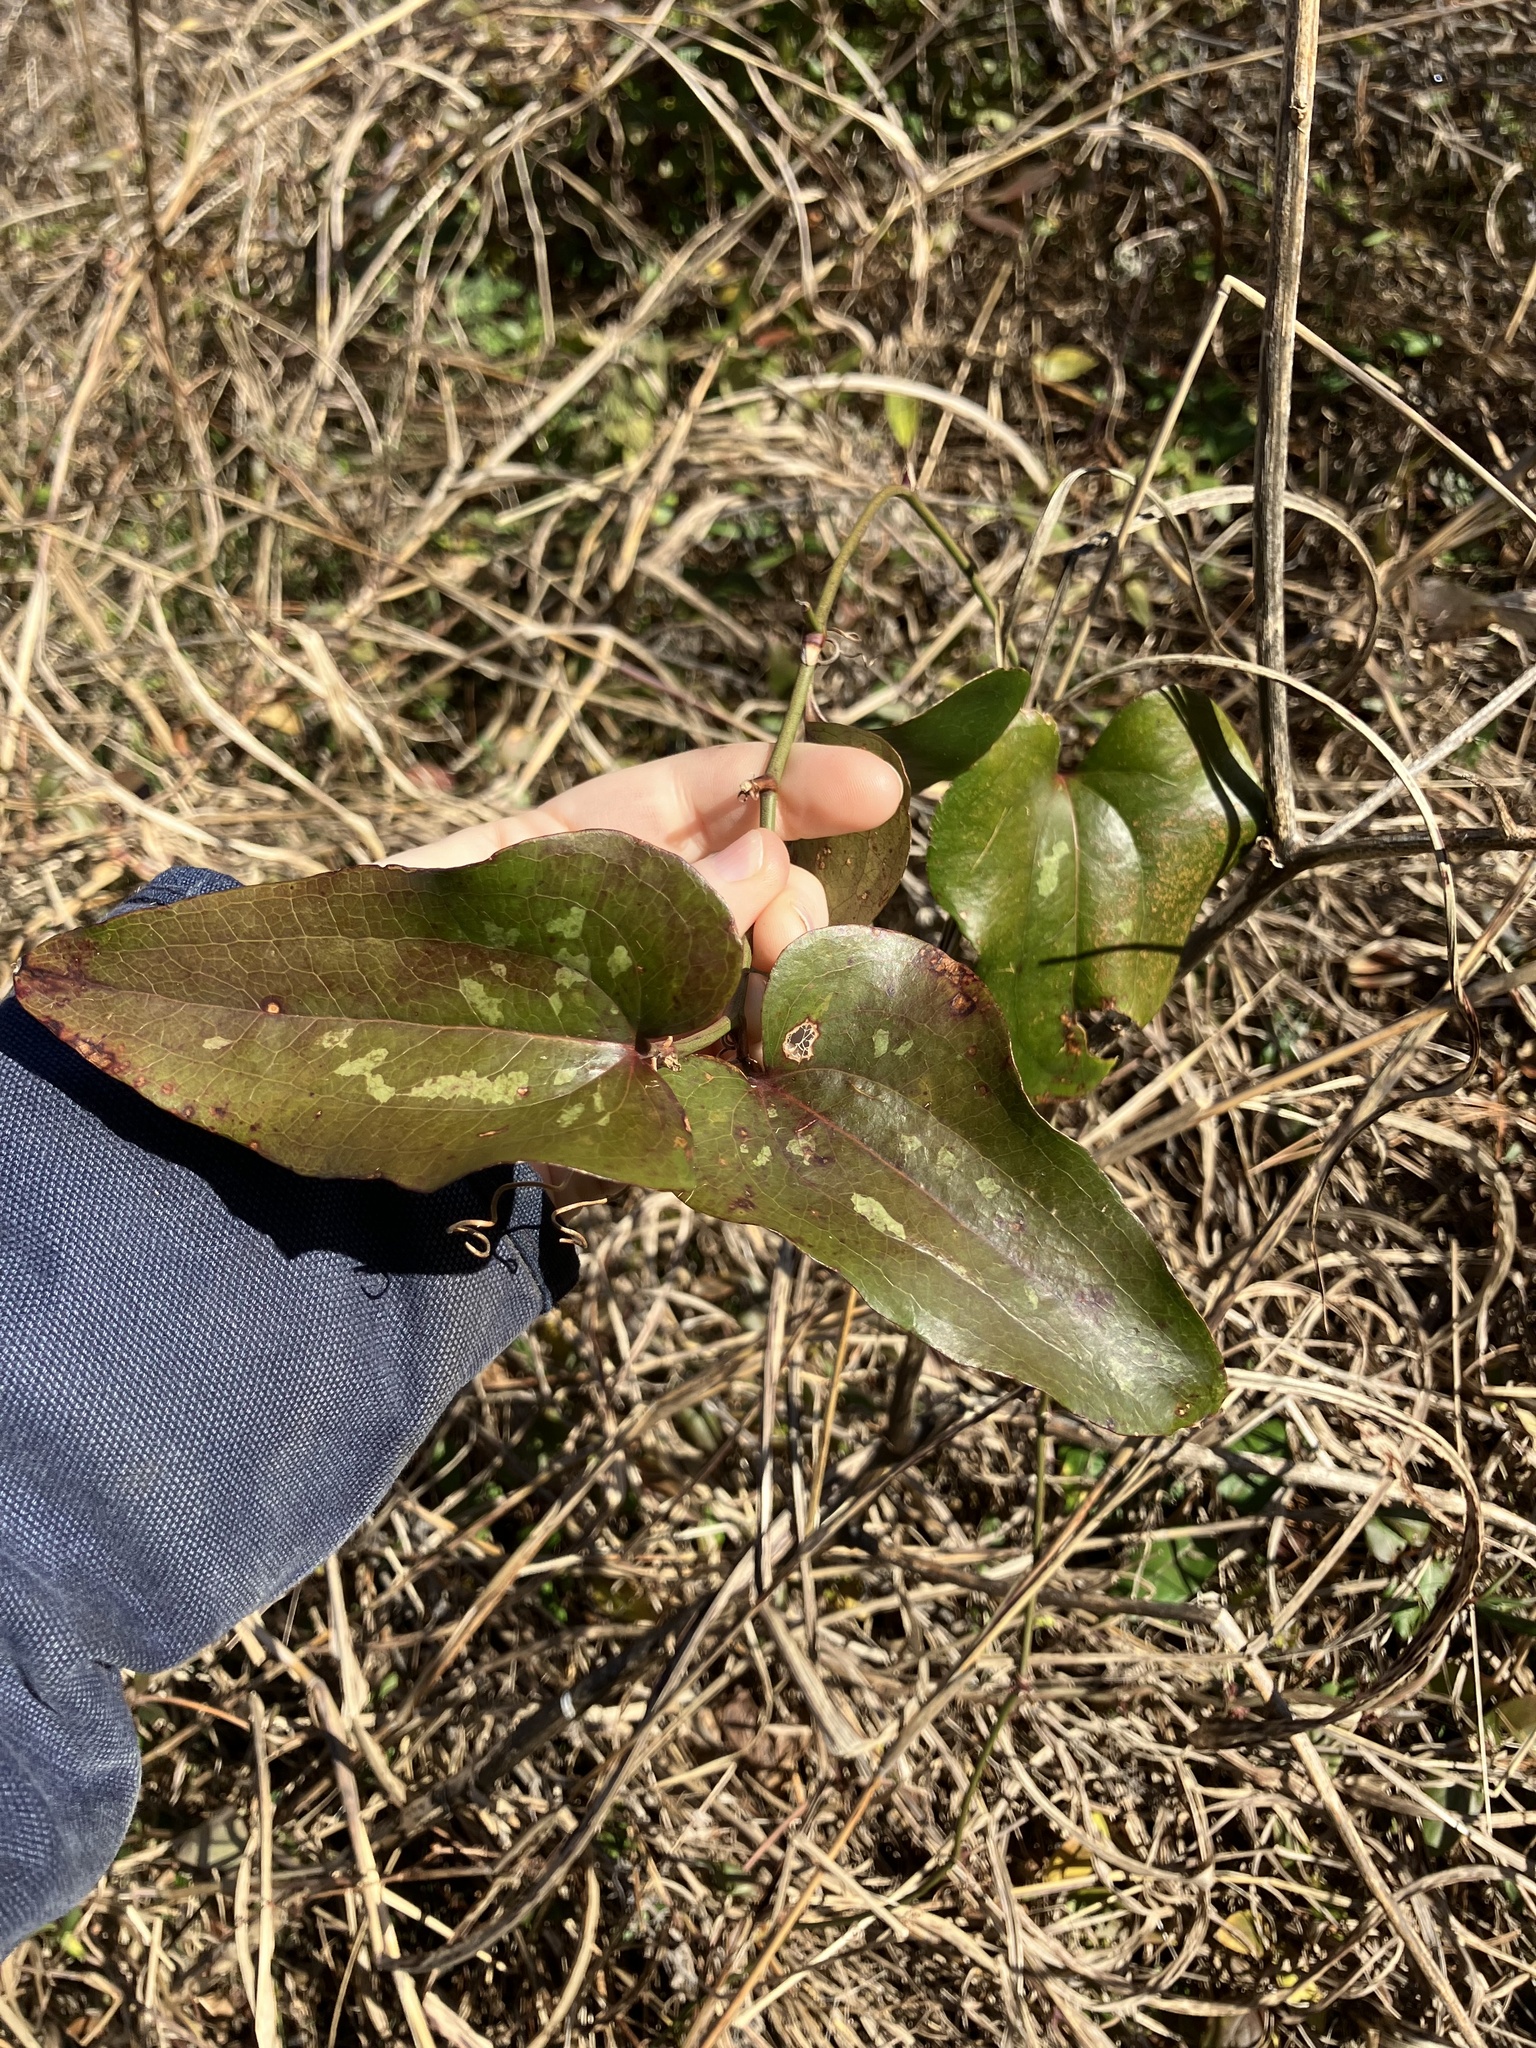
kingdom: Plantae
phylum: Tracheophyta
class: Liliopsida
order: Liliales
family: Smilacaceae
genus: Smilax
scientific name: Smilax bona-nox
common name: Catbrier
